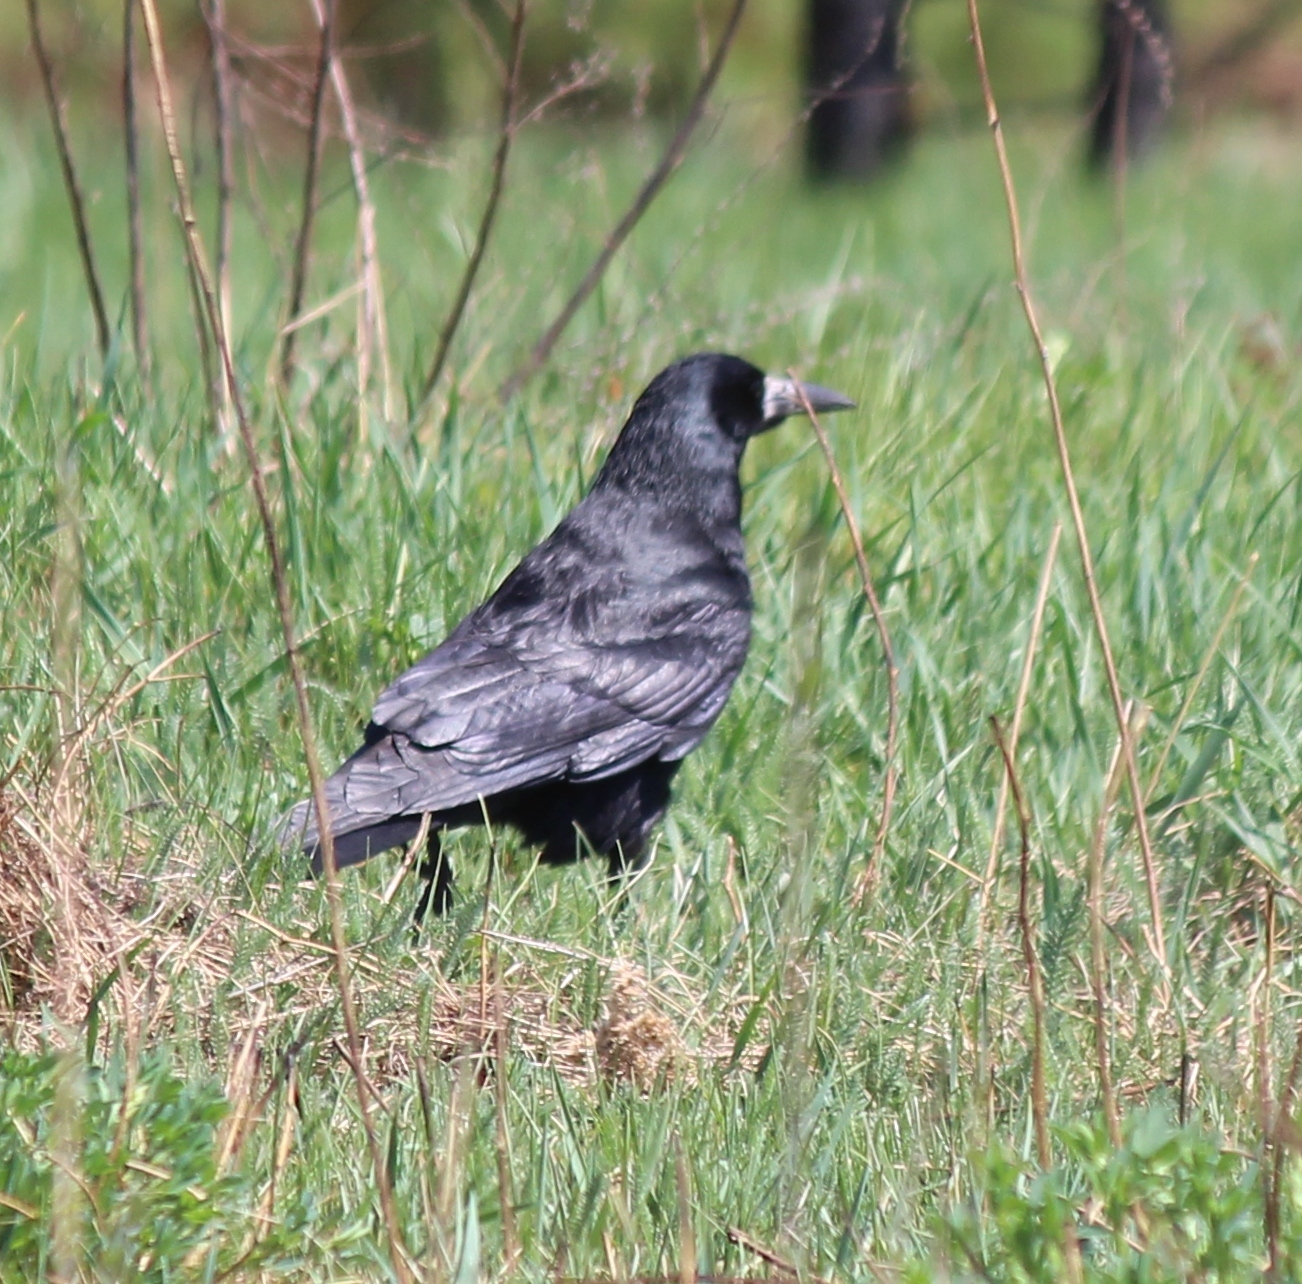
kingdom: Animalia
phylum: Chordata
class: Aves
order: Passeriformes
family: Corvidae
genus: Corvus
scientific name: Corvus frugilegus
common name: Rook
